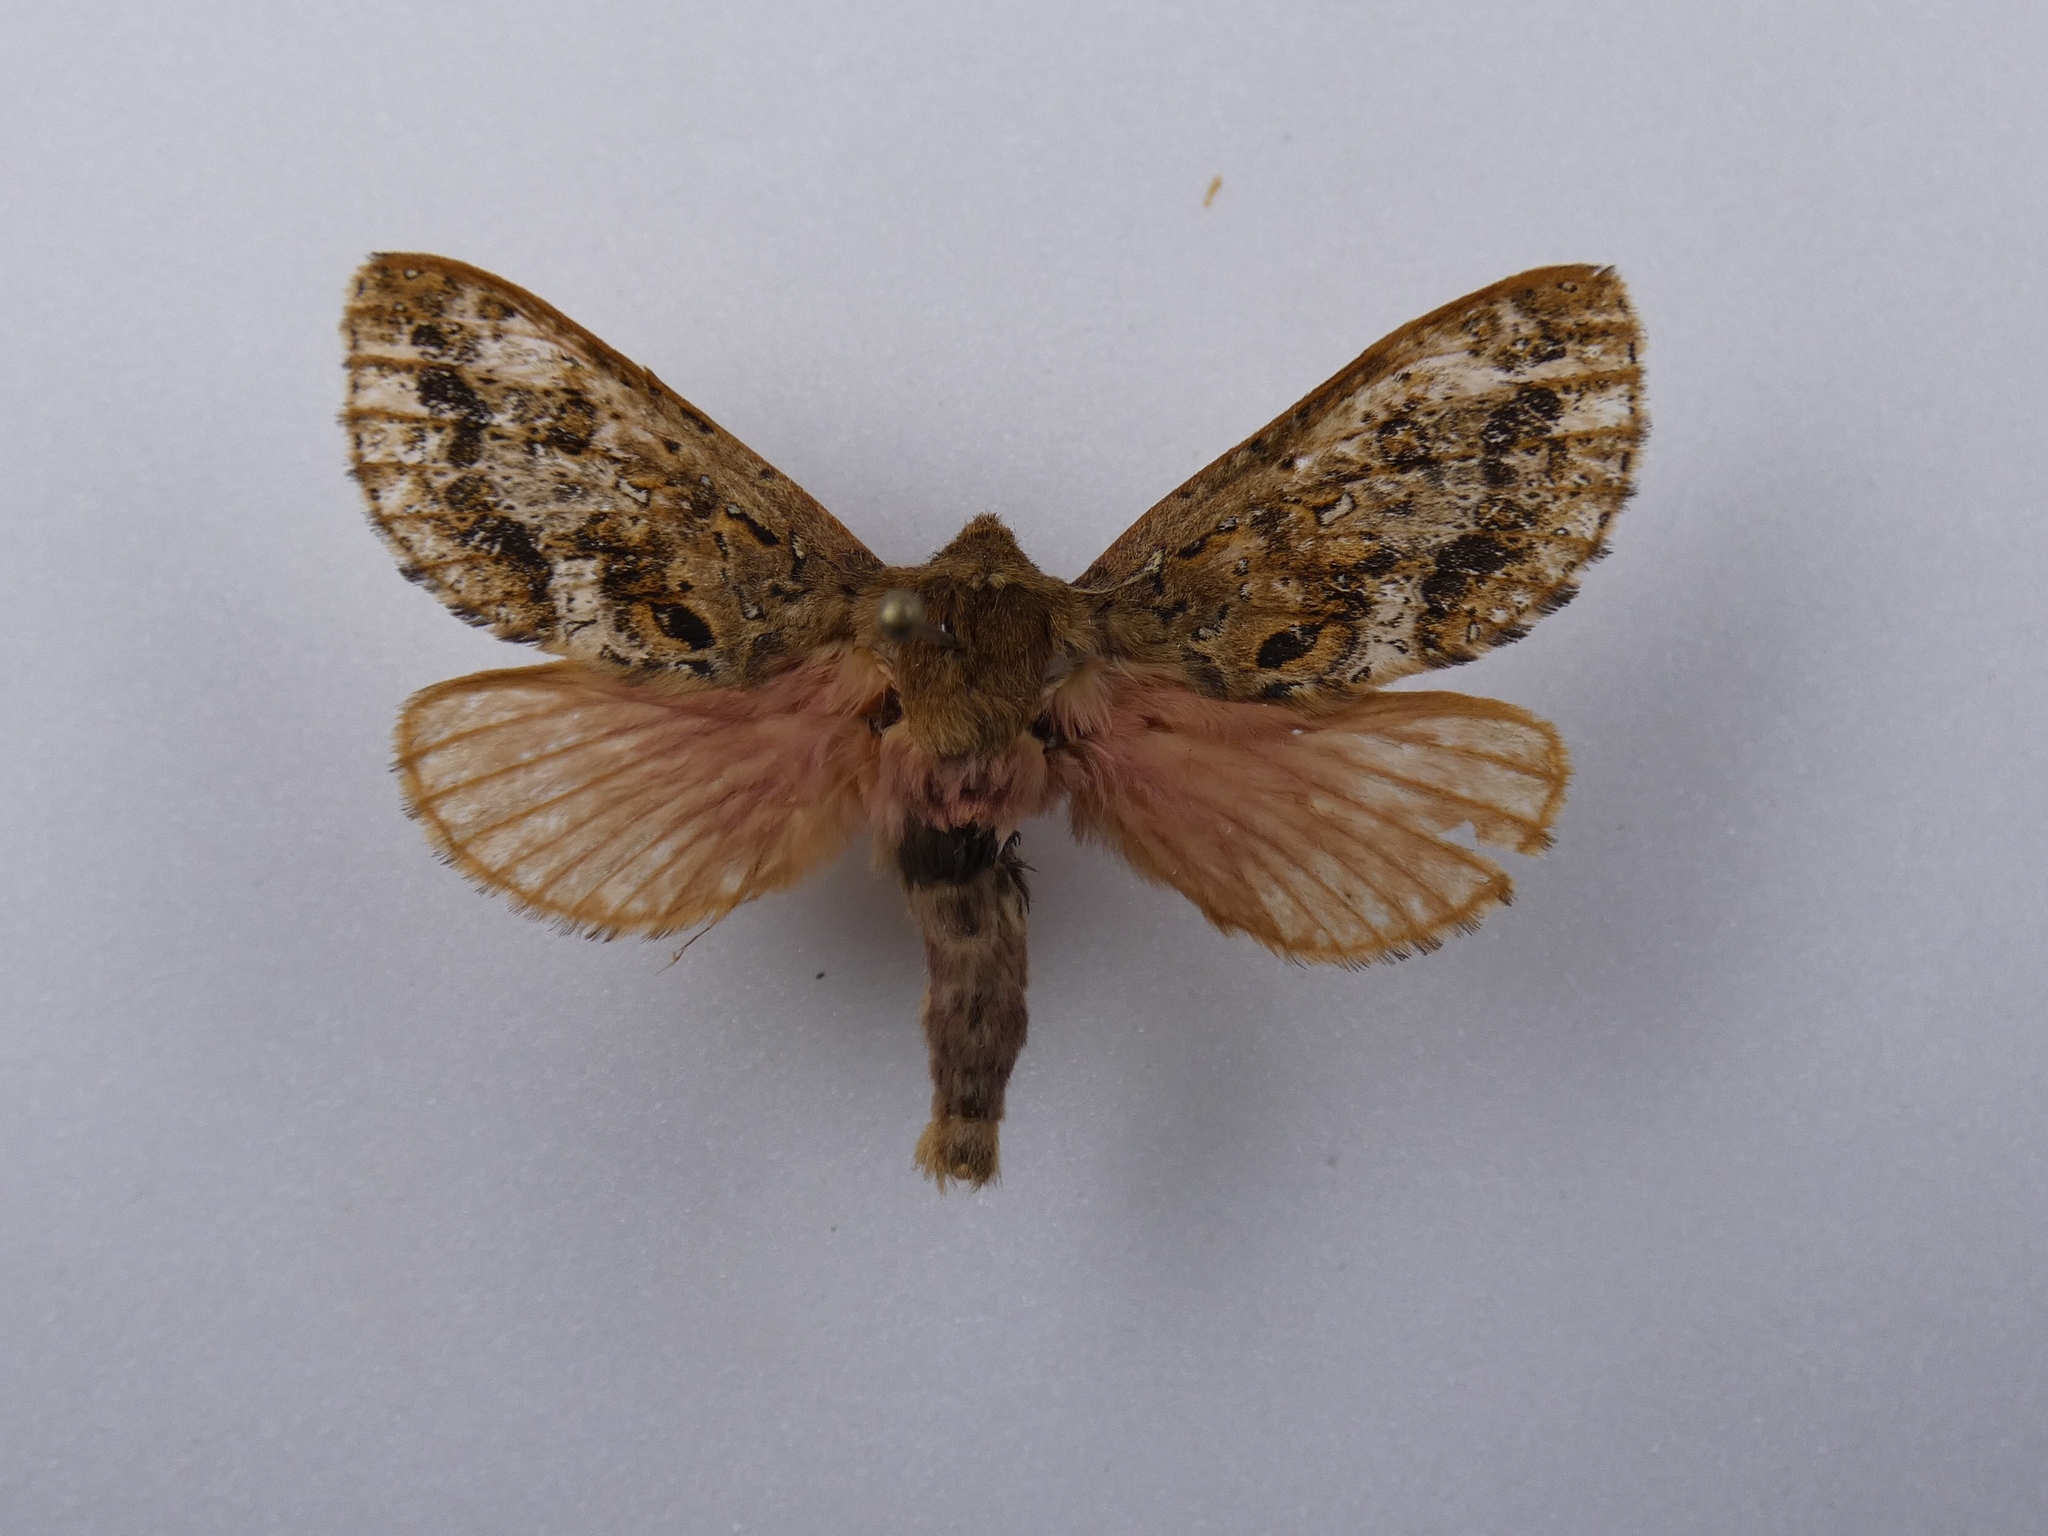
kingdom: Animalia
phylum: Arthropoda
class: Insecta
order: Lepidoptera
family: Hepialidae
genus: Dumbletonius
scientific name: Dumbletonius unimaculata
